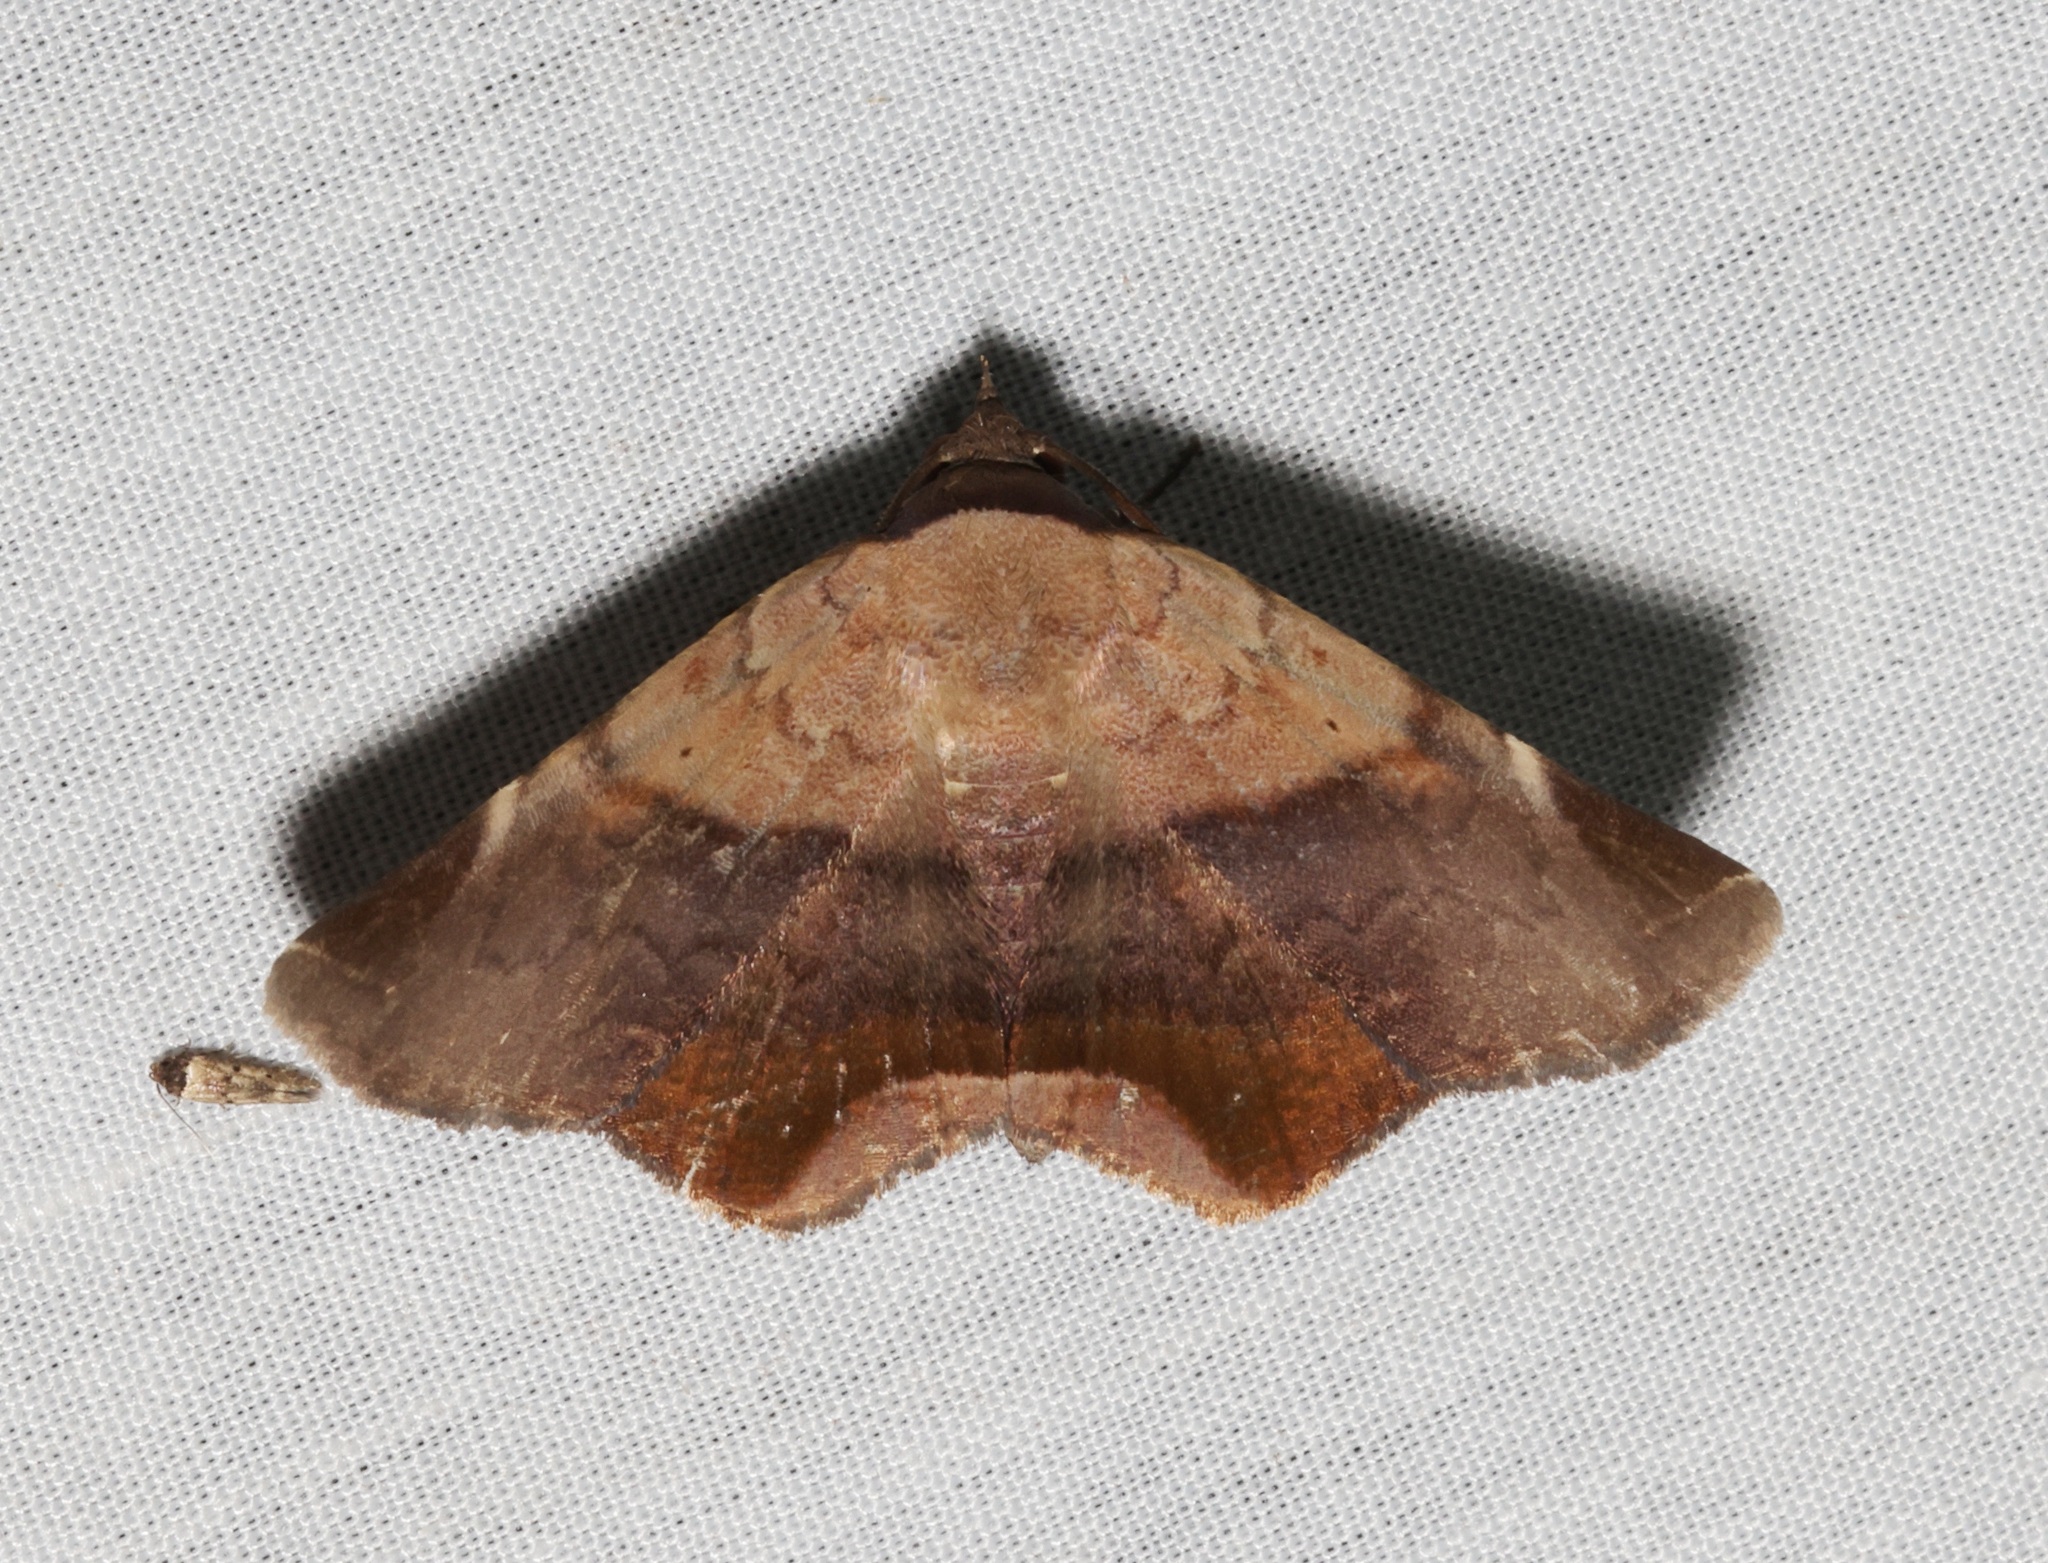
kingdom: Animalia
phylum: Arthropoda
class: Insecta
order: Lepidoptera
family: Erebidae
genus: Psimada
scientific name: Psimada quadripennis
